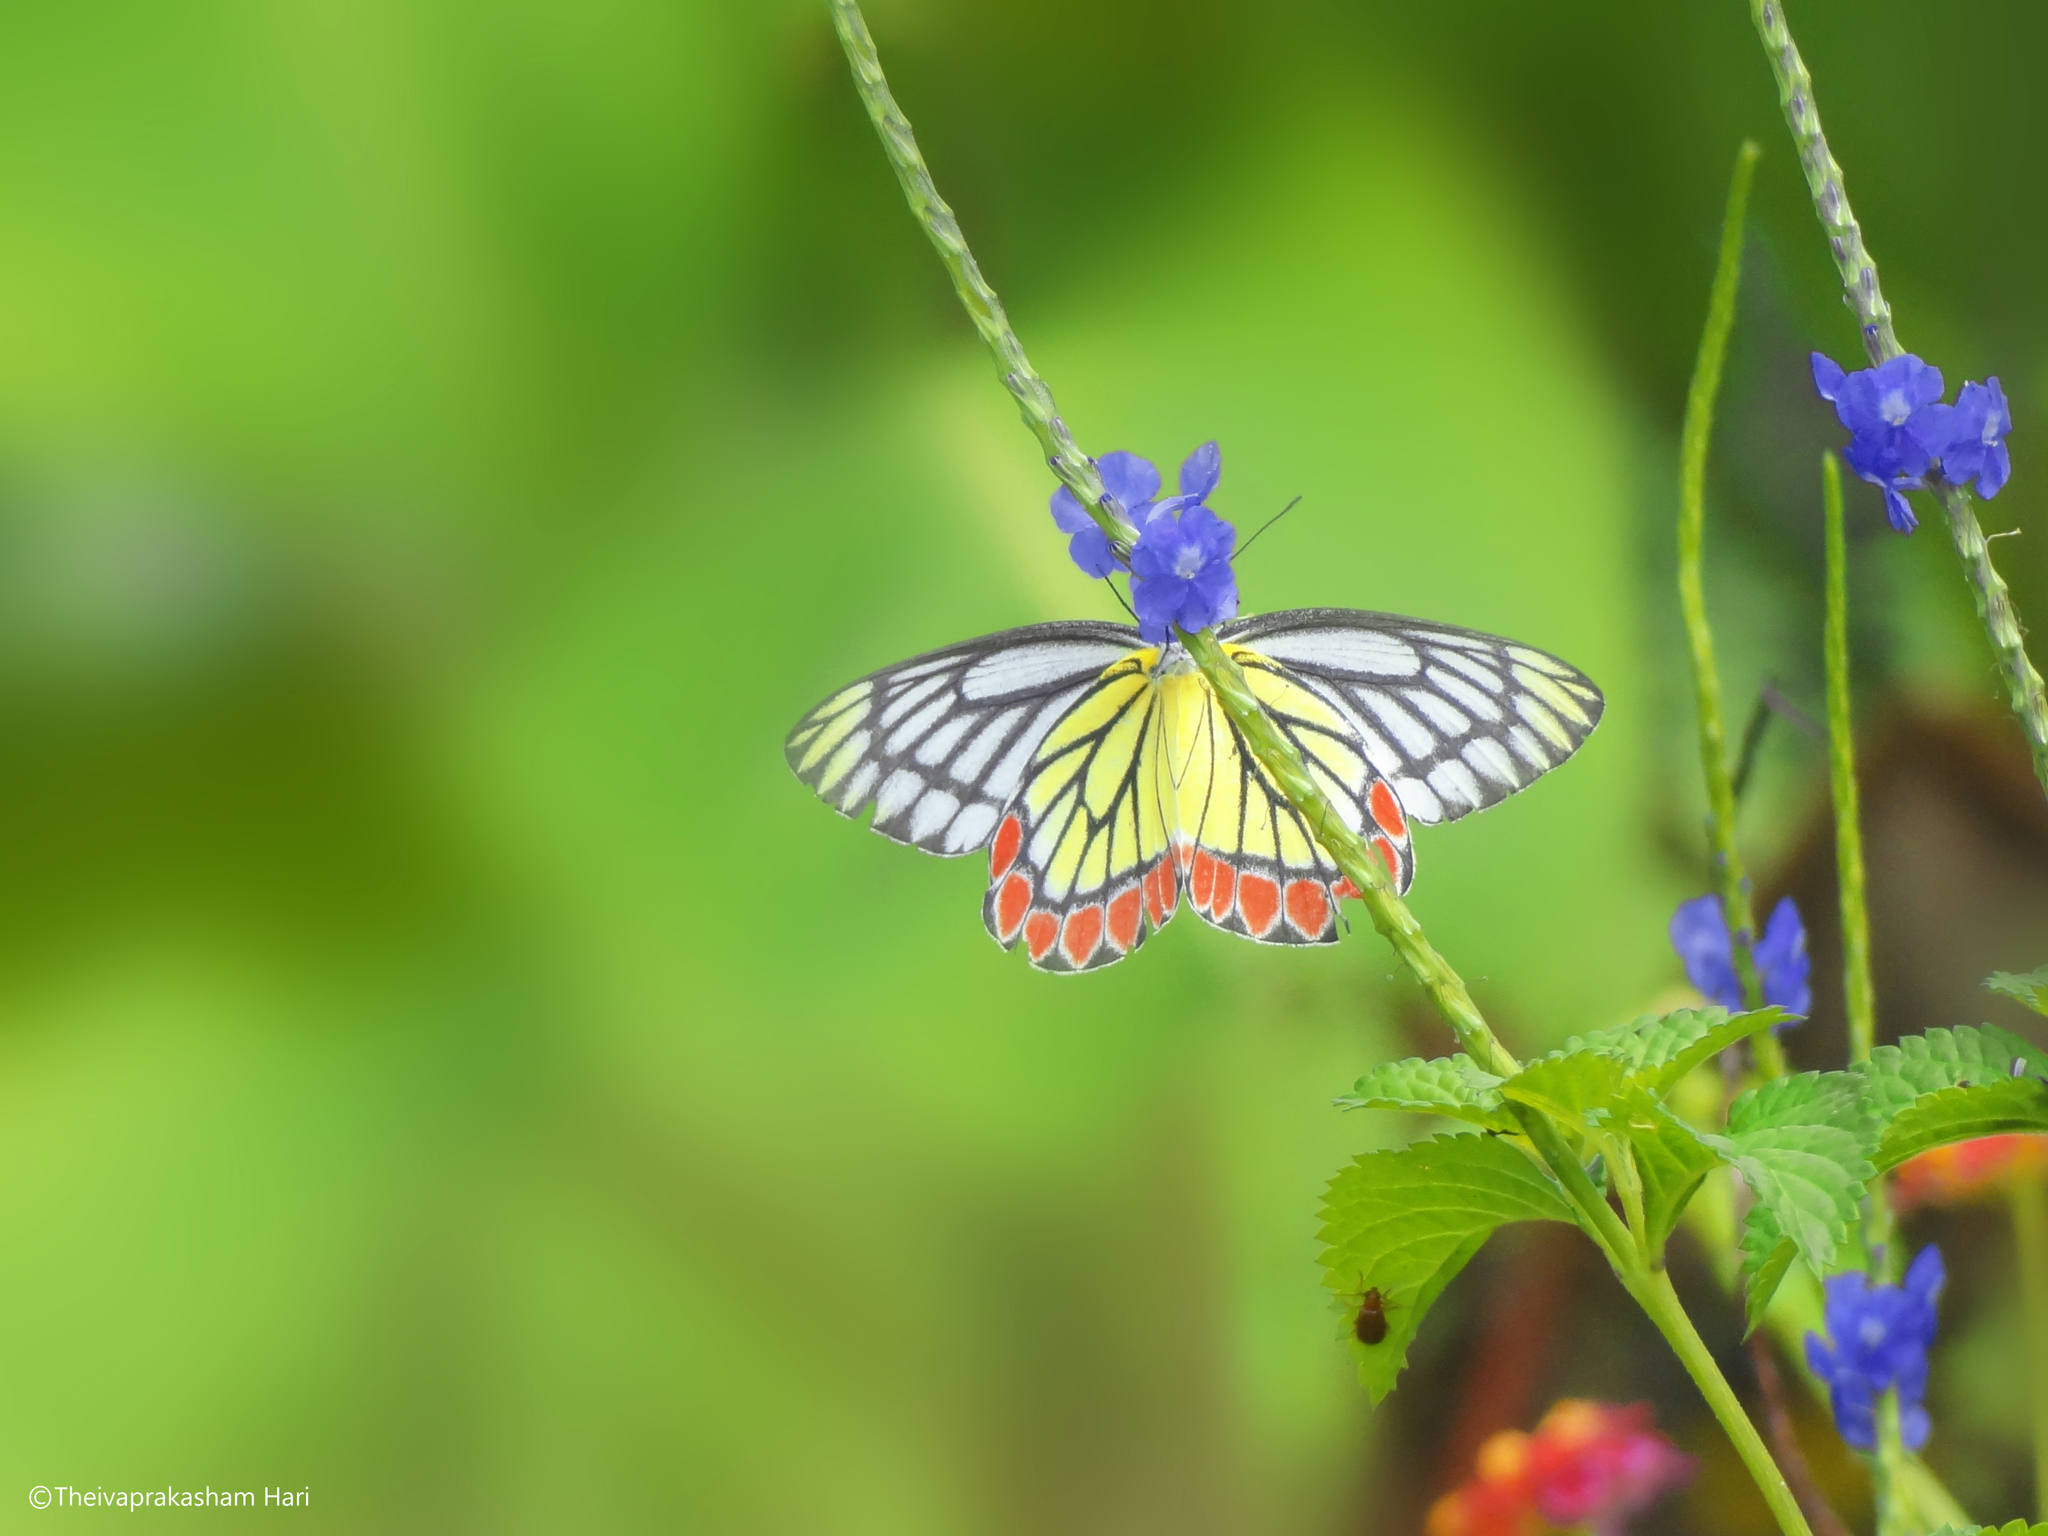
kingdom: Animalia
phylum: Arthropoda
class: Insecta
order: Lepidoptera
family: Pieridae
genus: Delias
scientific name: Delias eucharis
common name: Common jezebel
